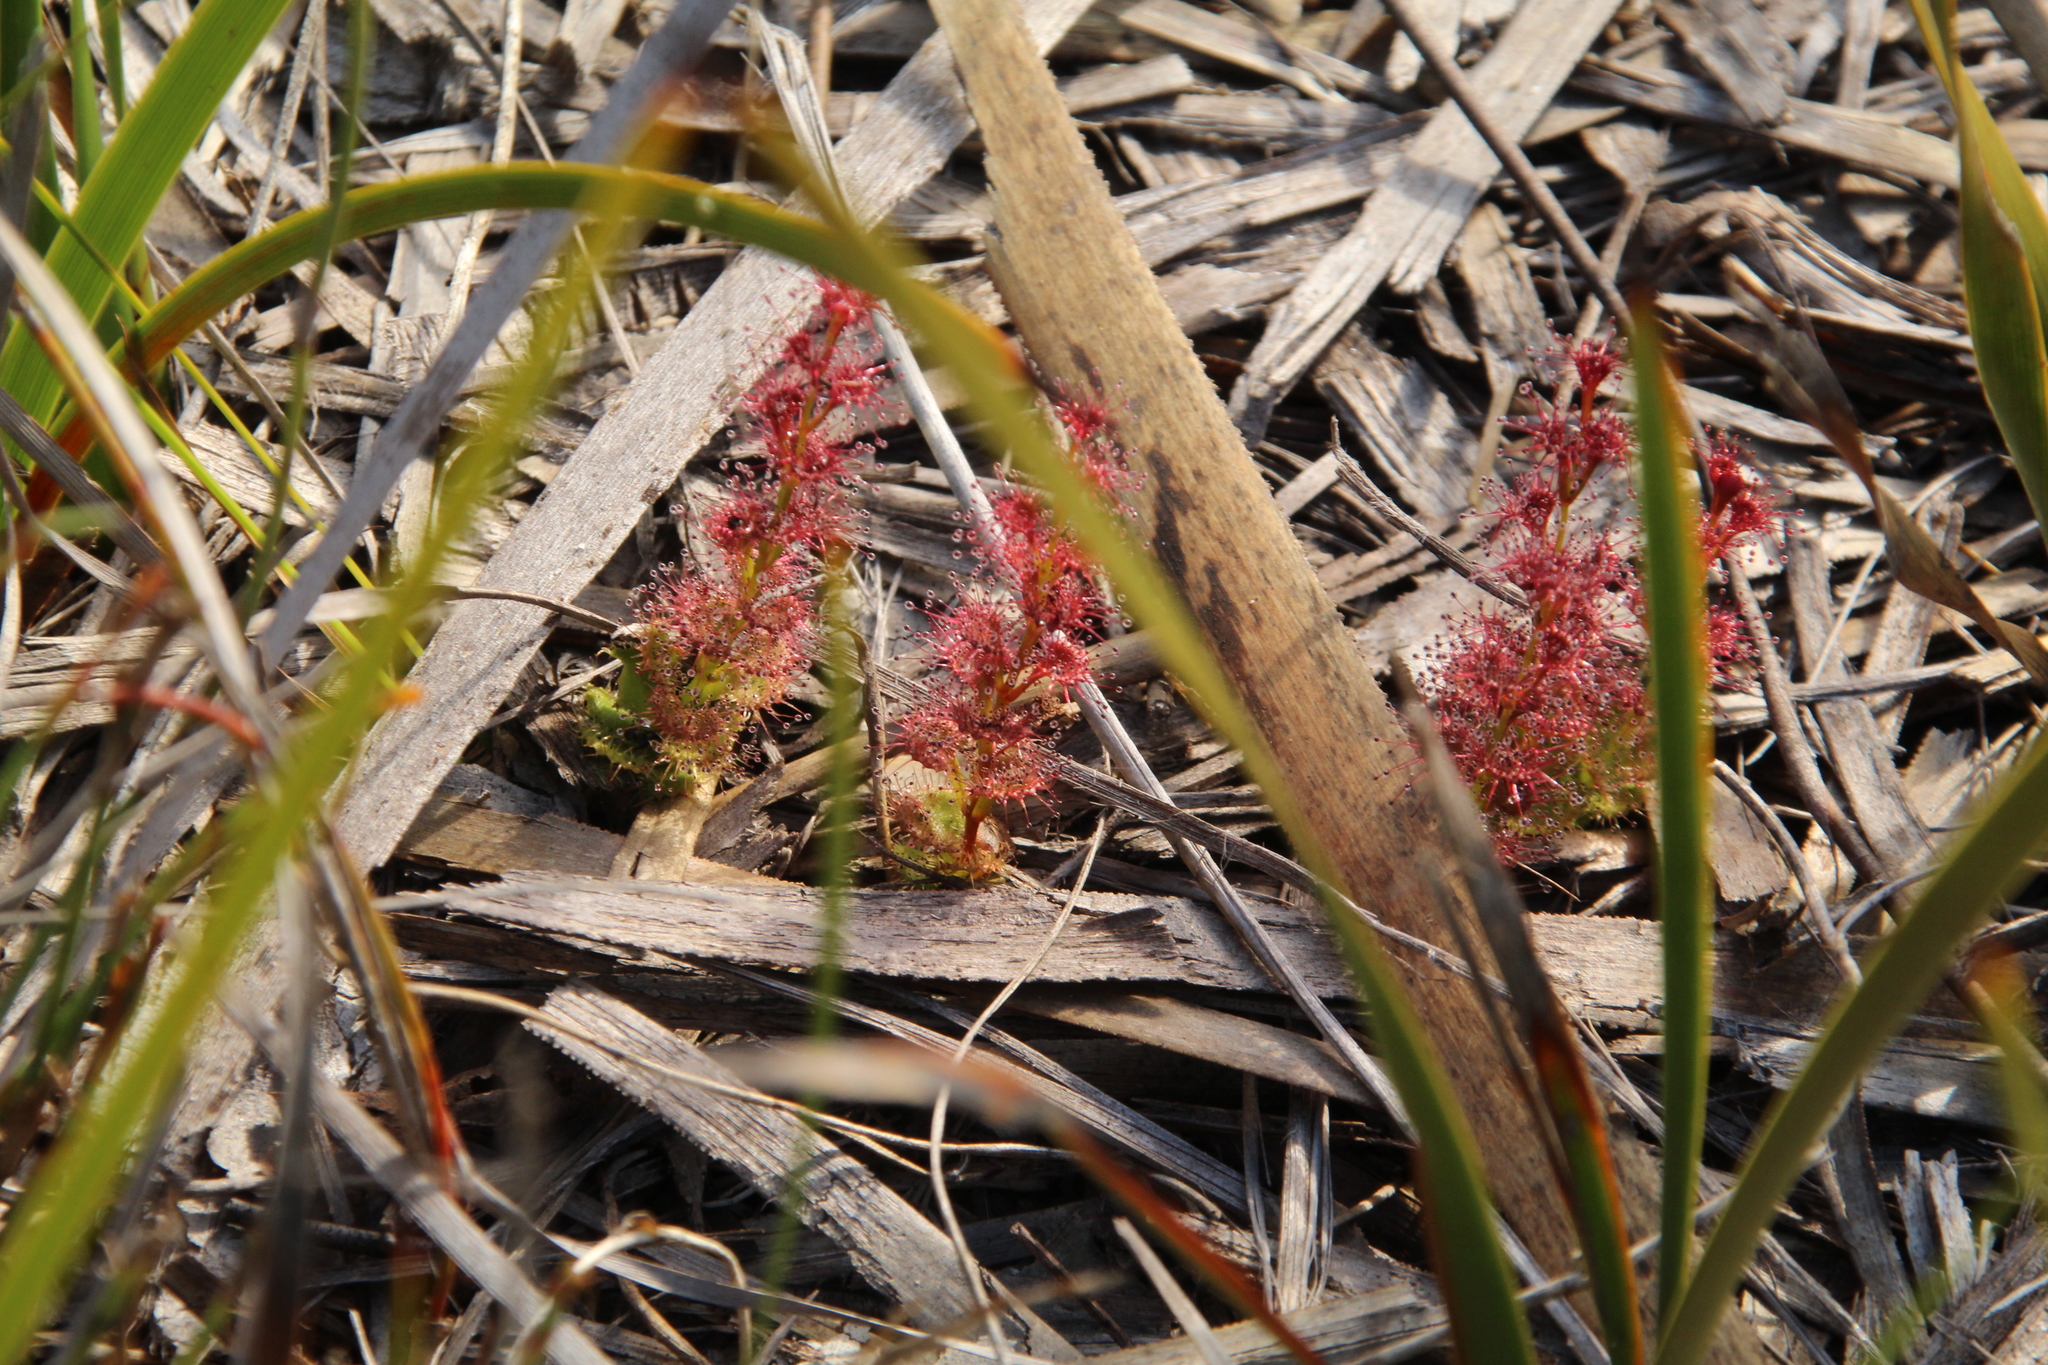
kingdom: Plantae
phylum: Tracheophyta
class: Magnoliopsida
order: Caryophyllales
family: Droseraceae
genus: Drosera
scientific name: Drosera platypoda
